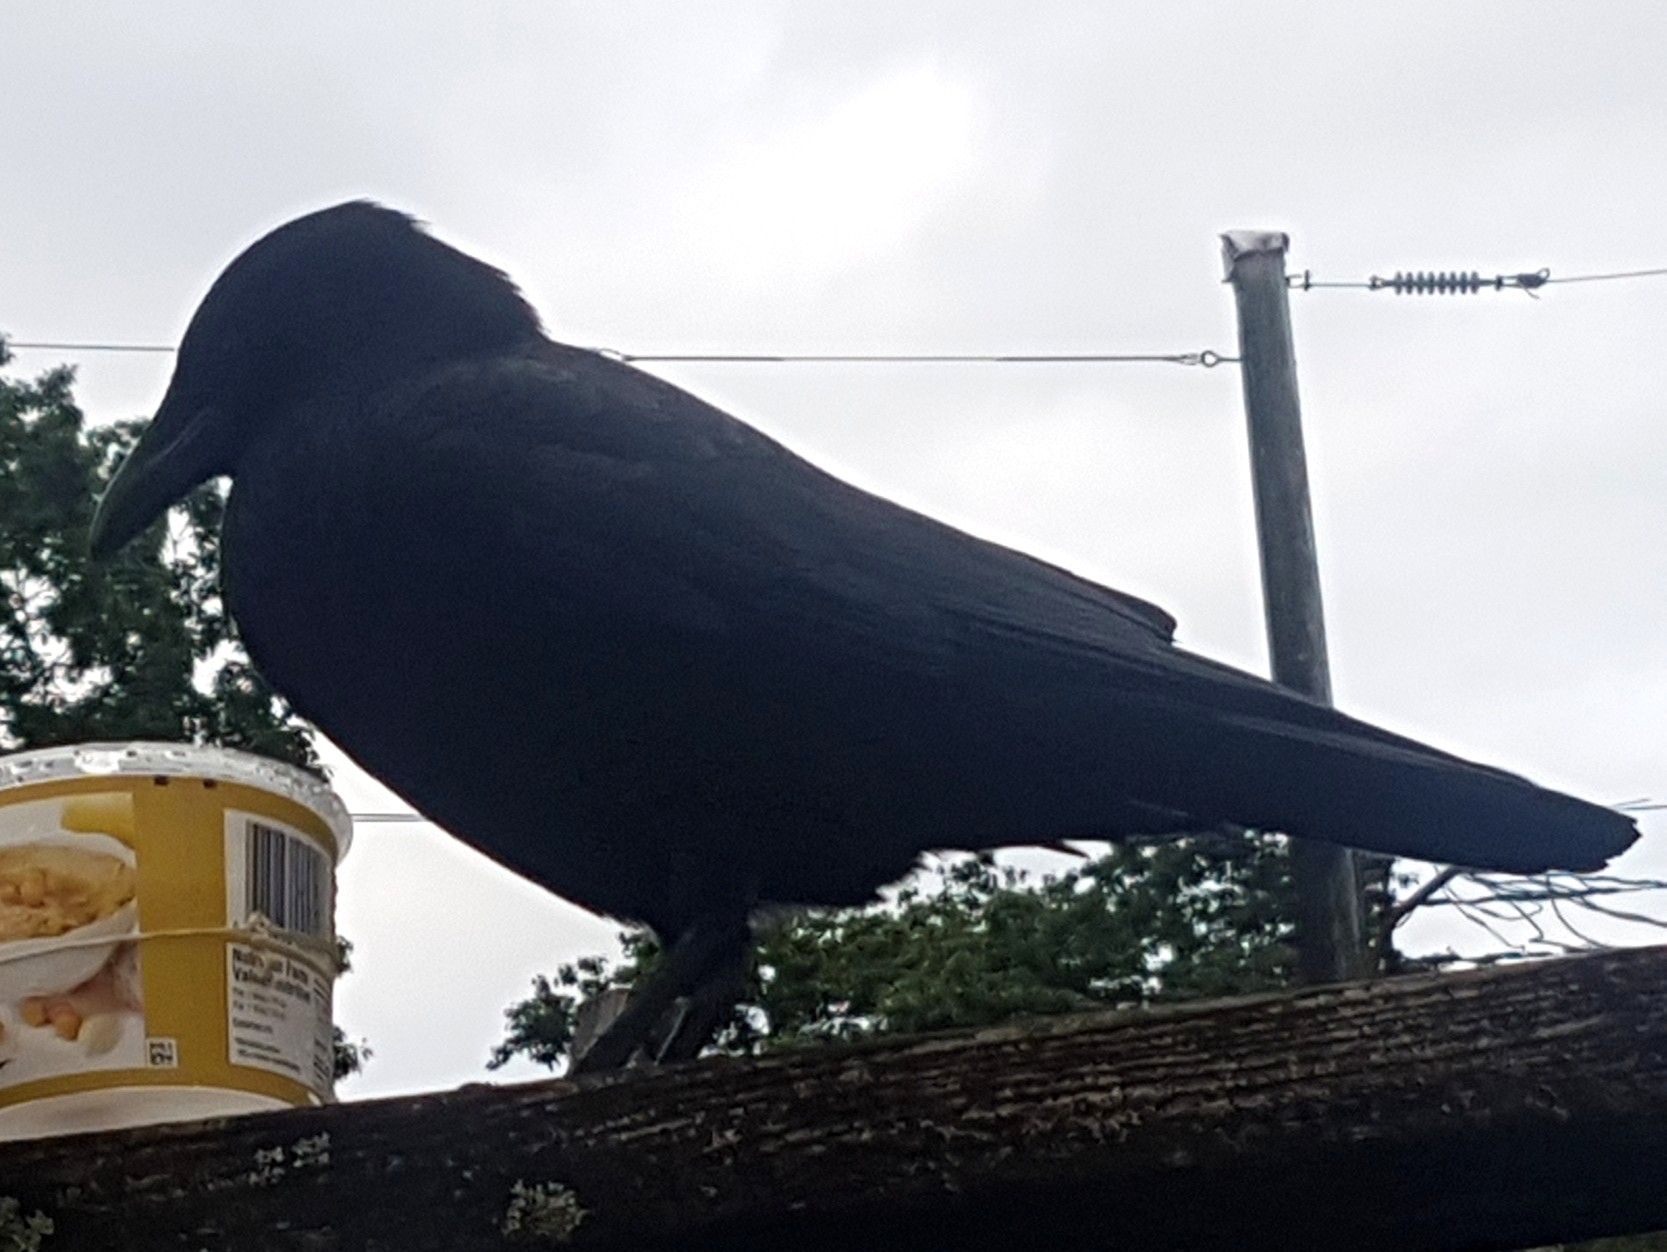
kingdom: Animalia
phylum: Chordata
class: Aves
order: Passeriformes
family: Corvidae
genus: Corvus
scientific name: Corvus brachyrhynchos
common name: American crow
